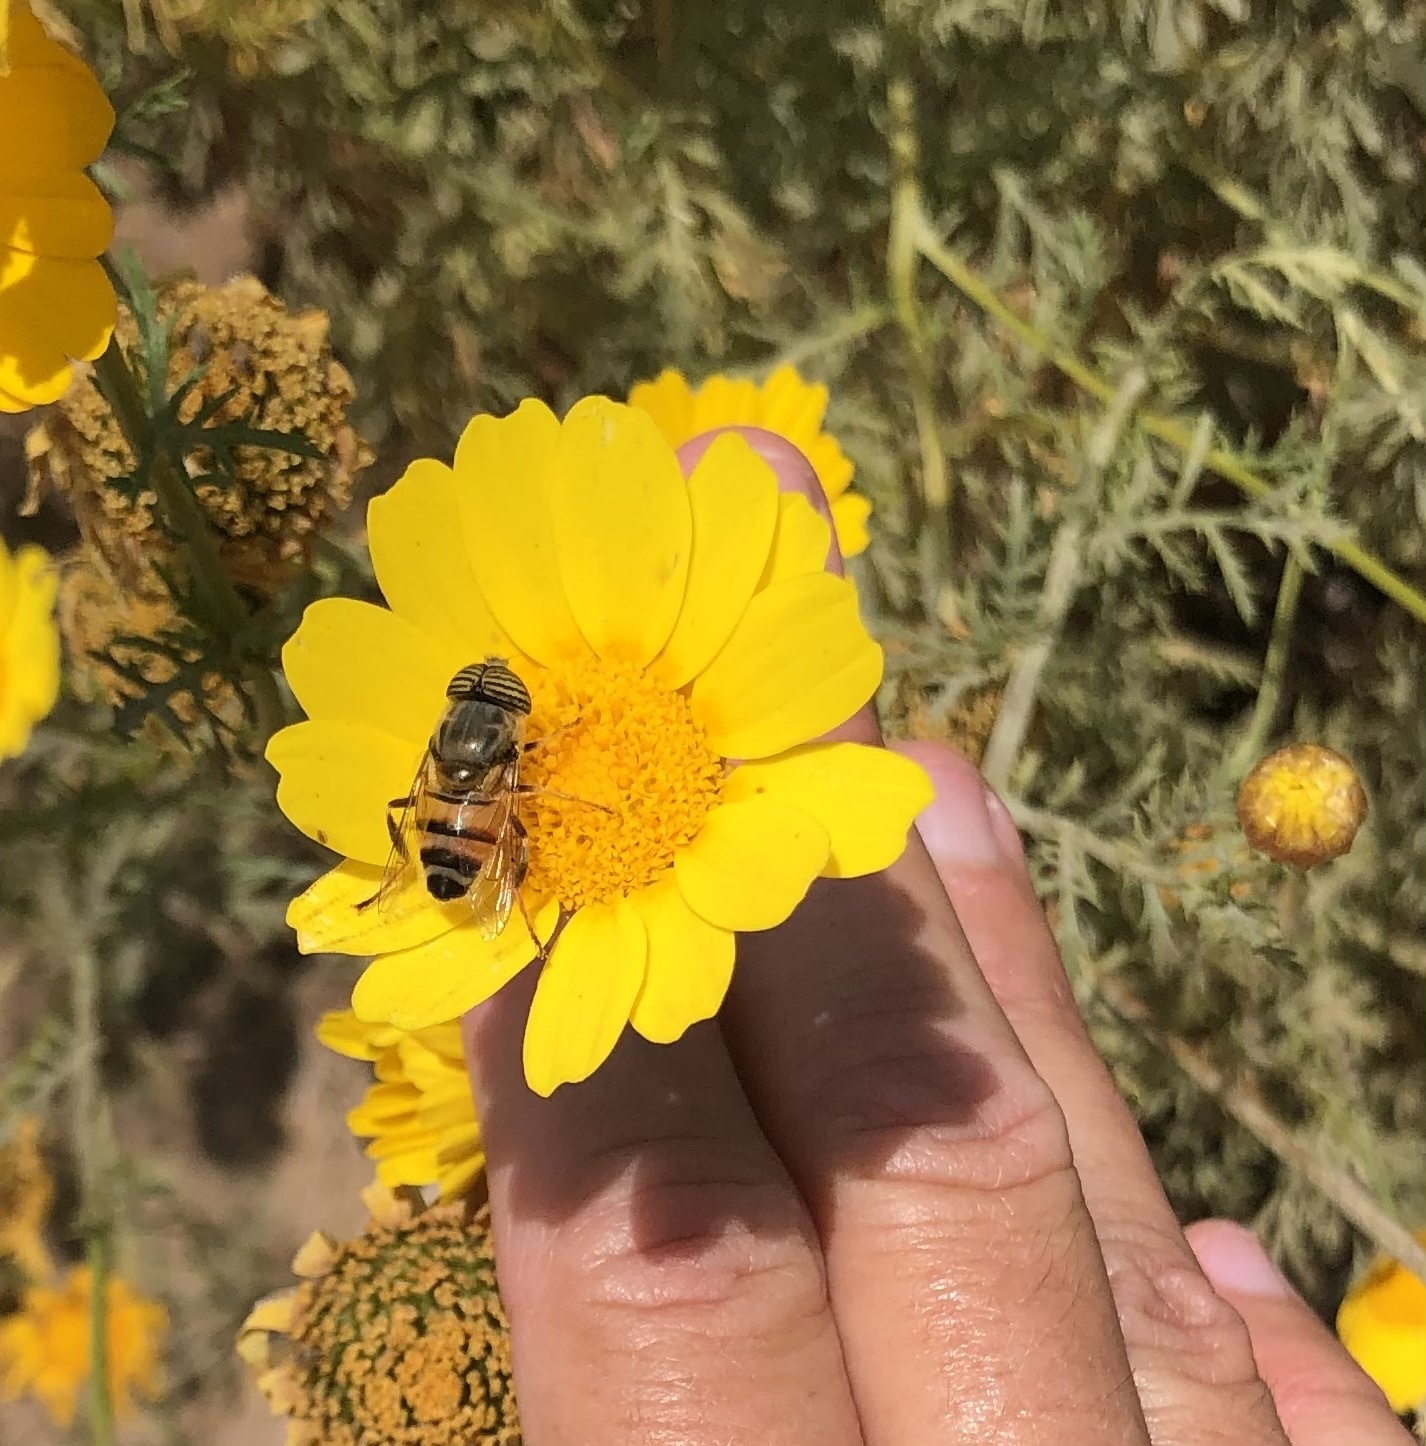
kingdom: Animalia
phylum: Arthropoda
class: Insecta
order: Diptera
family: Syrphidae
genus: Eristalinus
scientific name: Eristalinus taeniops
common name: Syrphid fly
